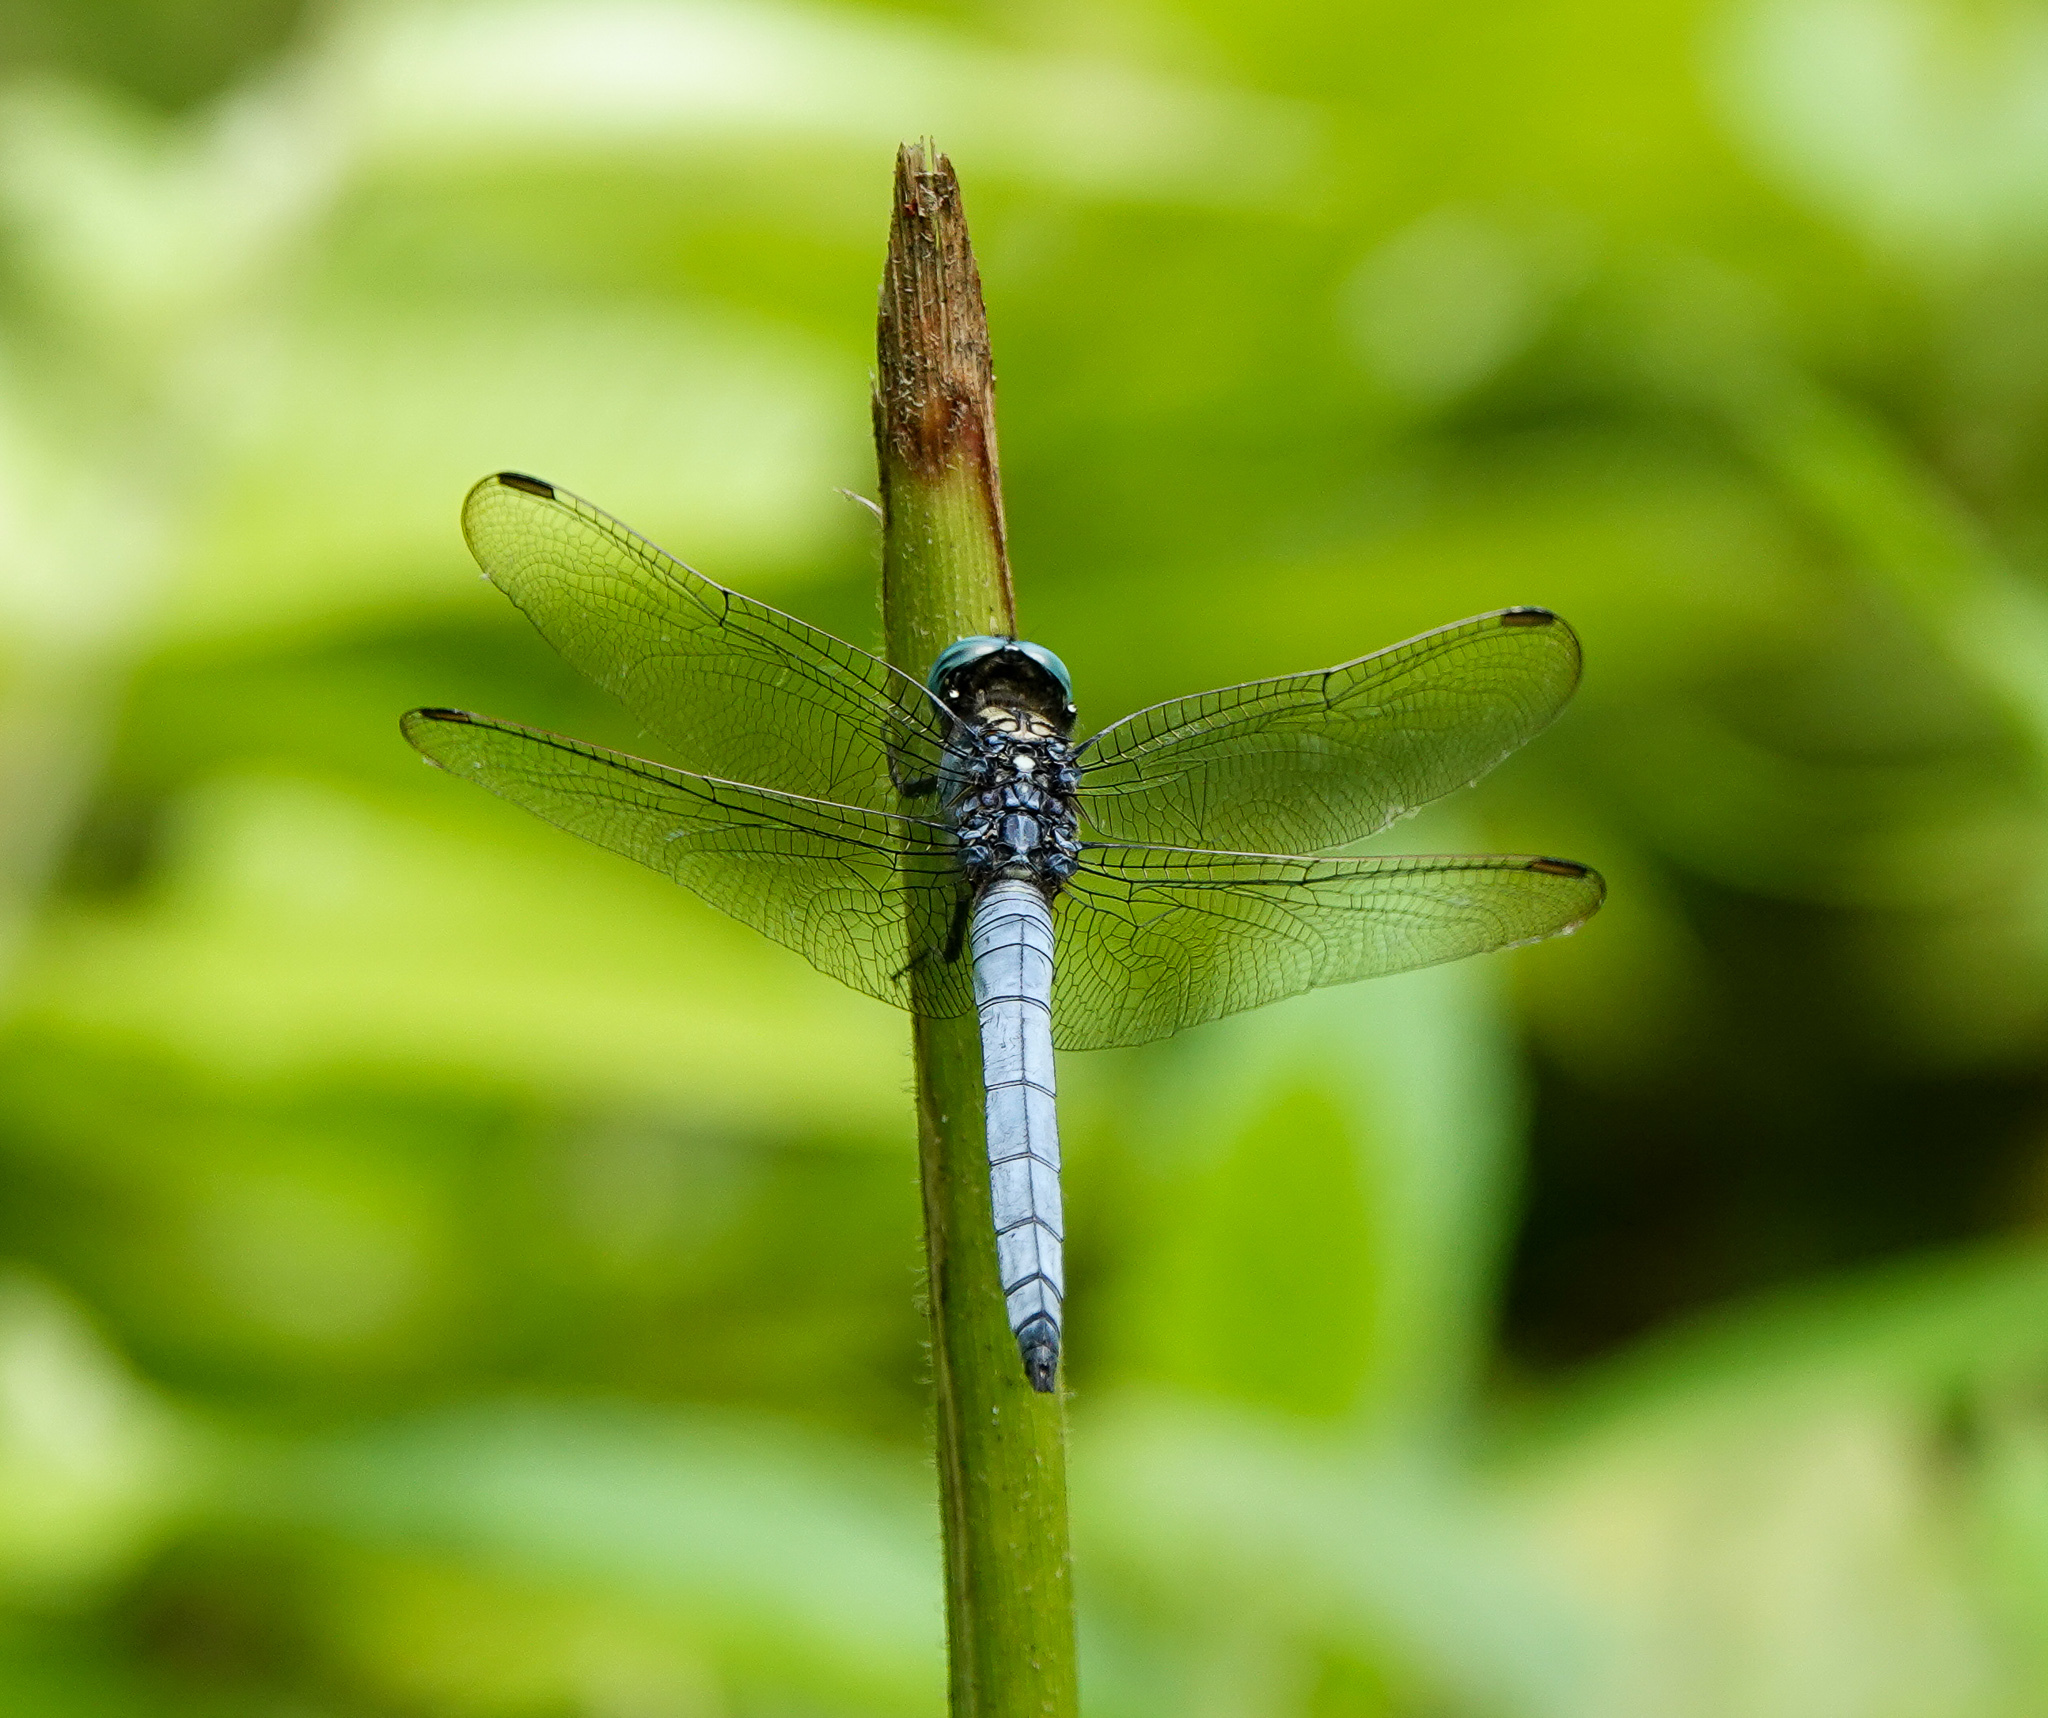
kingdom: Animalia
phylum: Arthropoda
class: Insecta
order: Odonata
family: Libellulidae
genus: Orthetrum
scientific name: Orthetrum luzonicum
